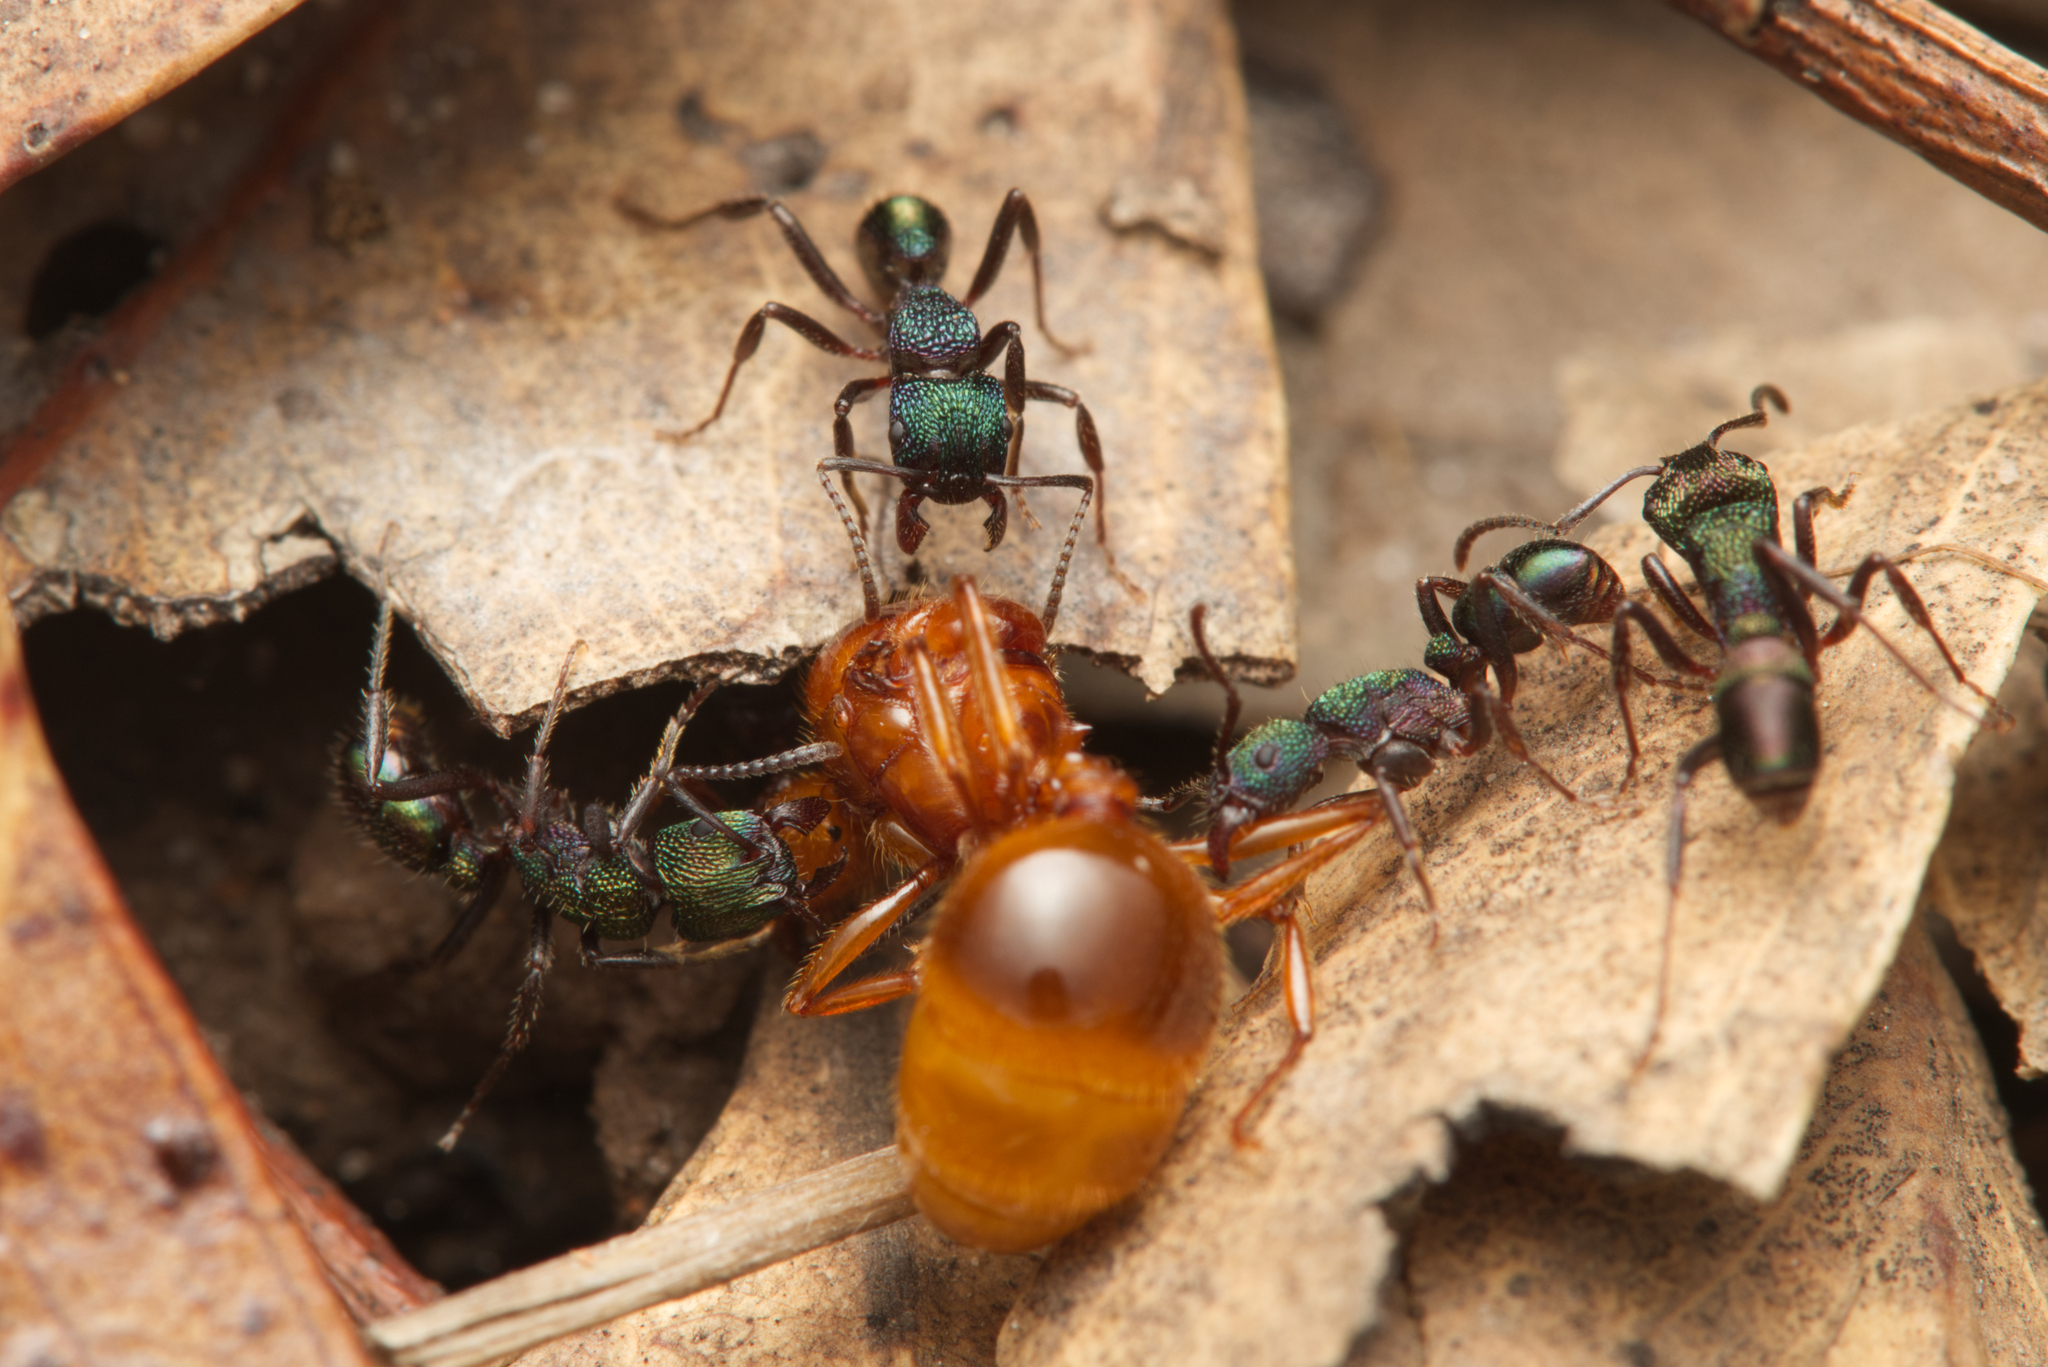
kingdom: Animalia
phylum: Arthropoda
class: Insecta
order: Hymenoptera
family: Formicidae
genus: Rhytidoponera
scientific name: Rhytidoponera metallica
